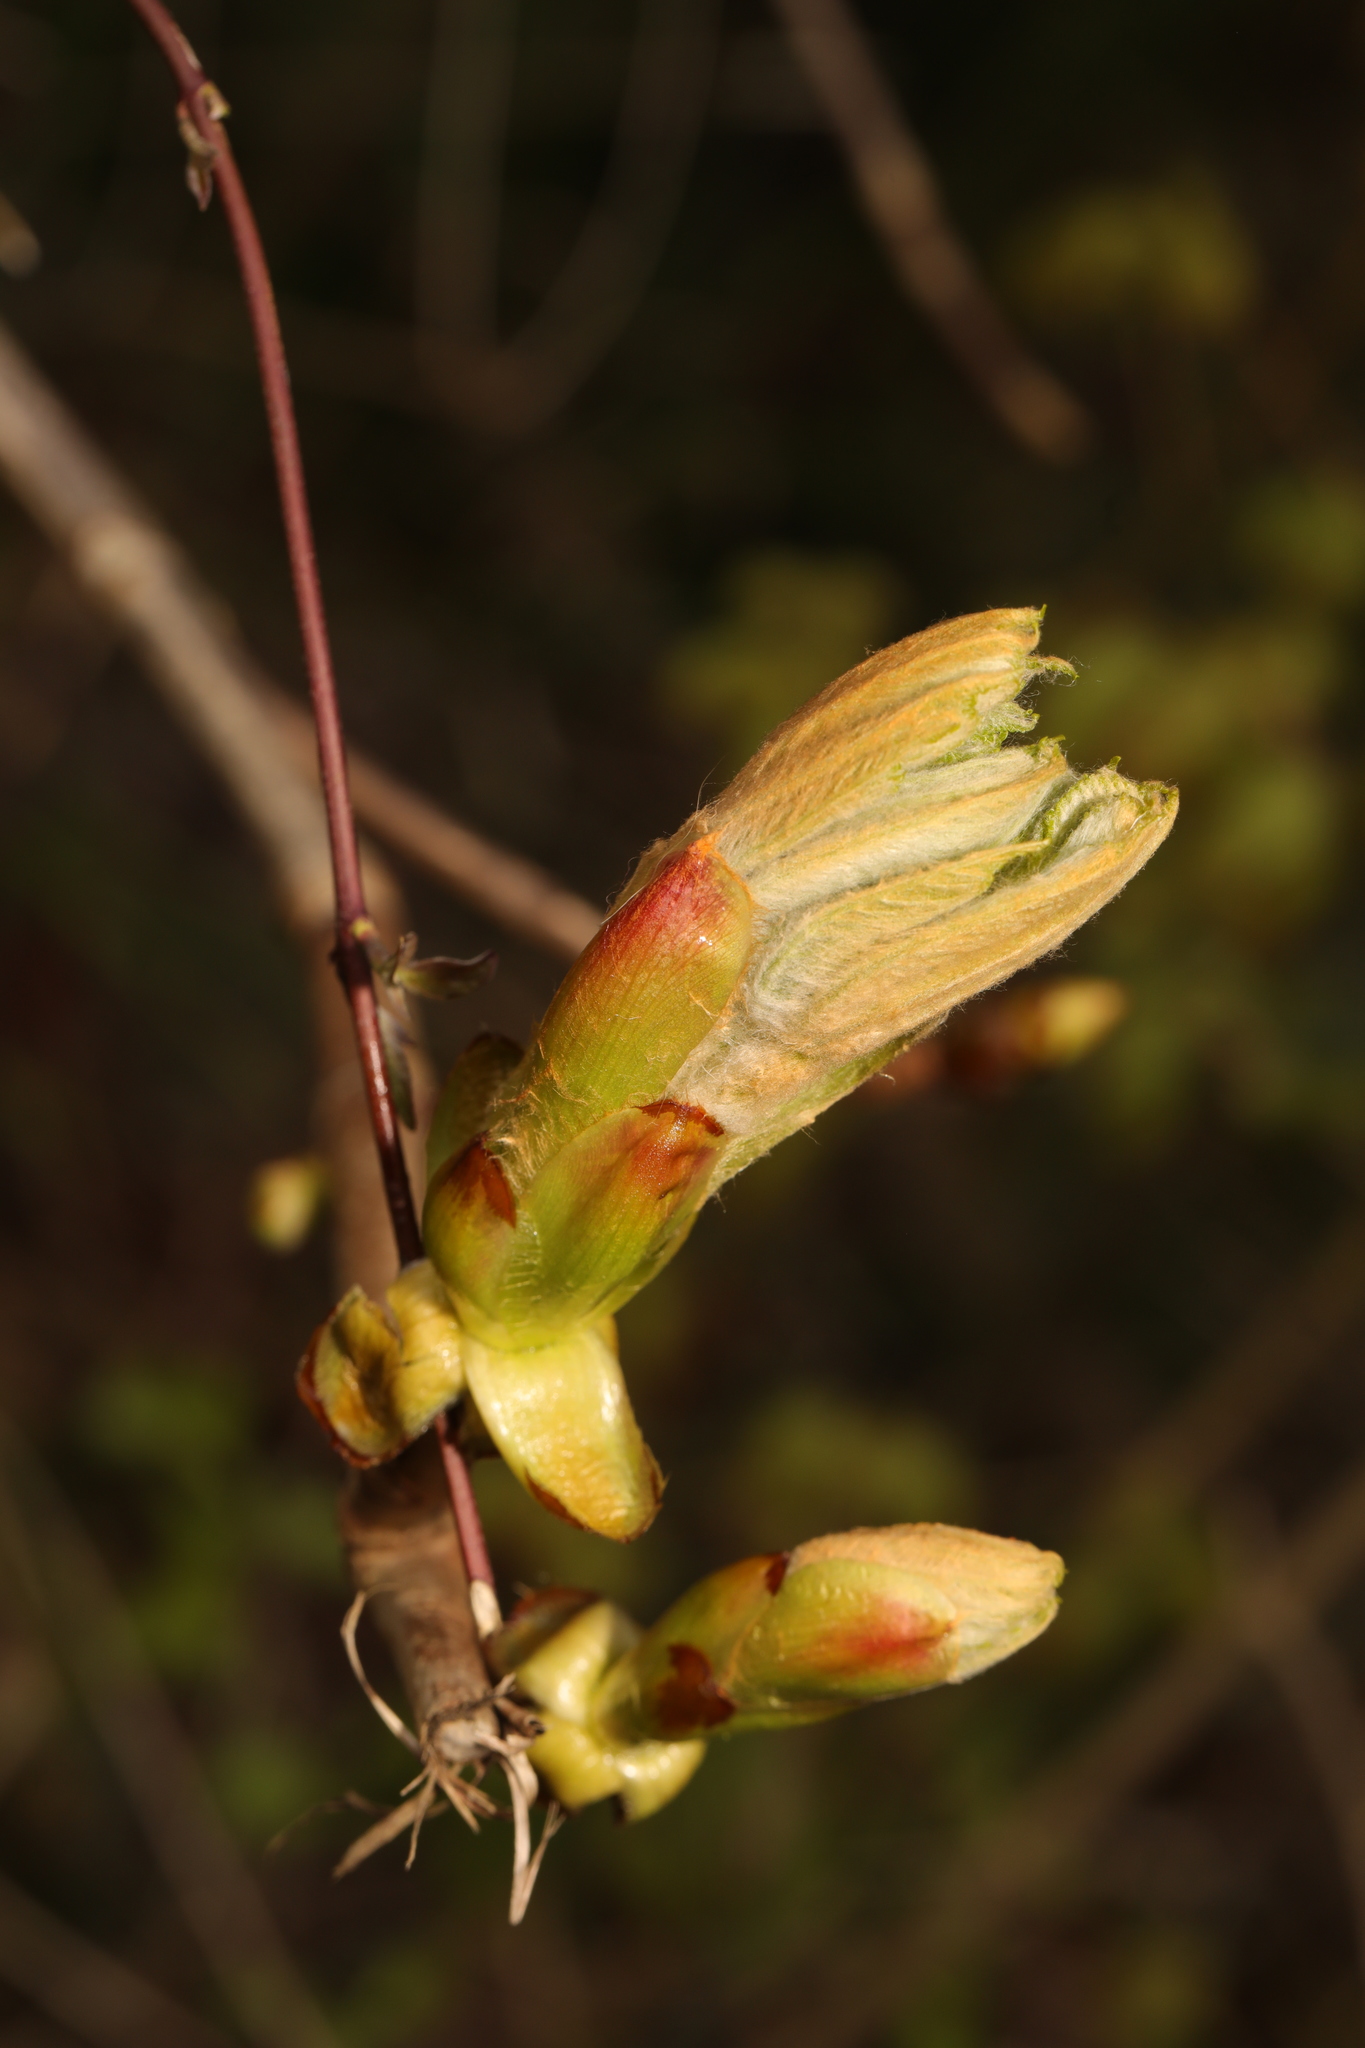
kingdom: Plantae
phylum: Tracheophyta
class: Magnoliopsida
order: Sapindales
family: Sapindaceae
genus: Acer
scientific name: Acer pseudoplatanus
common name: Sycamore
